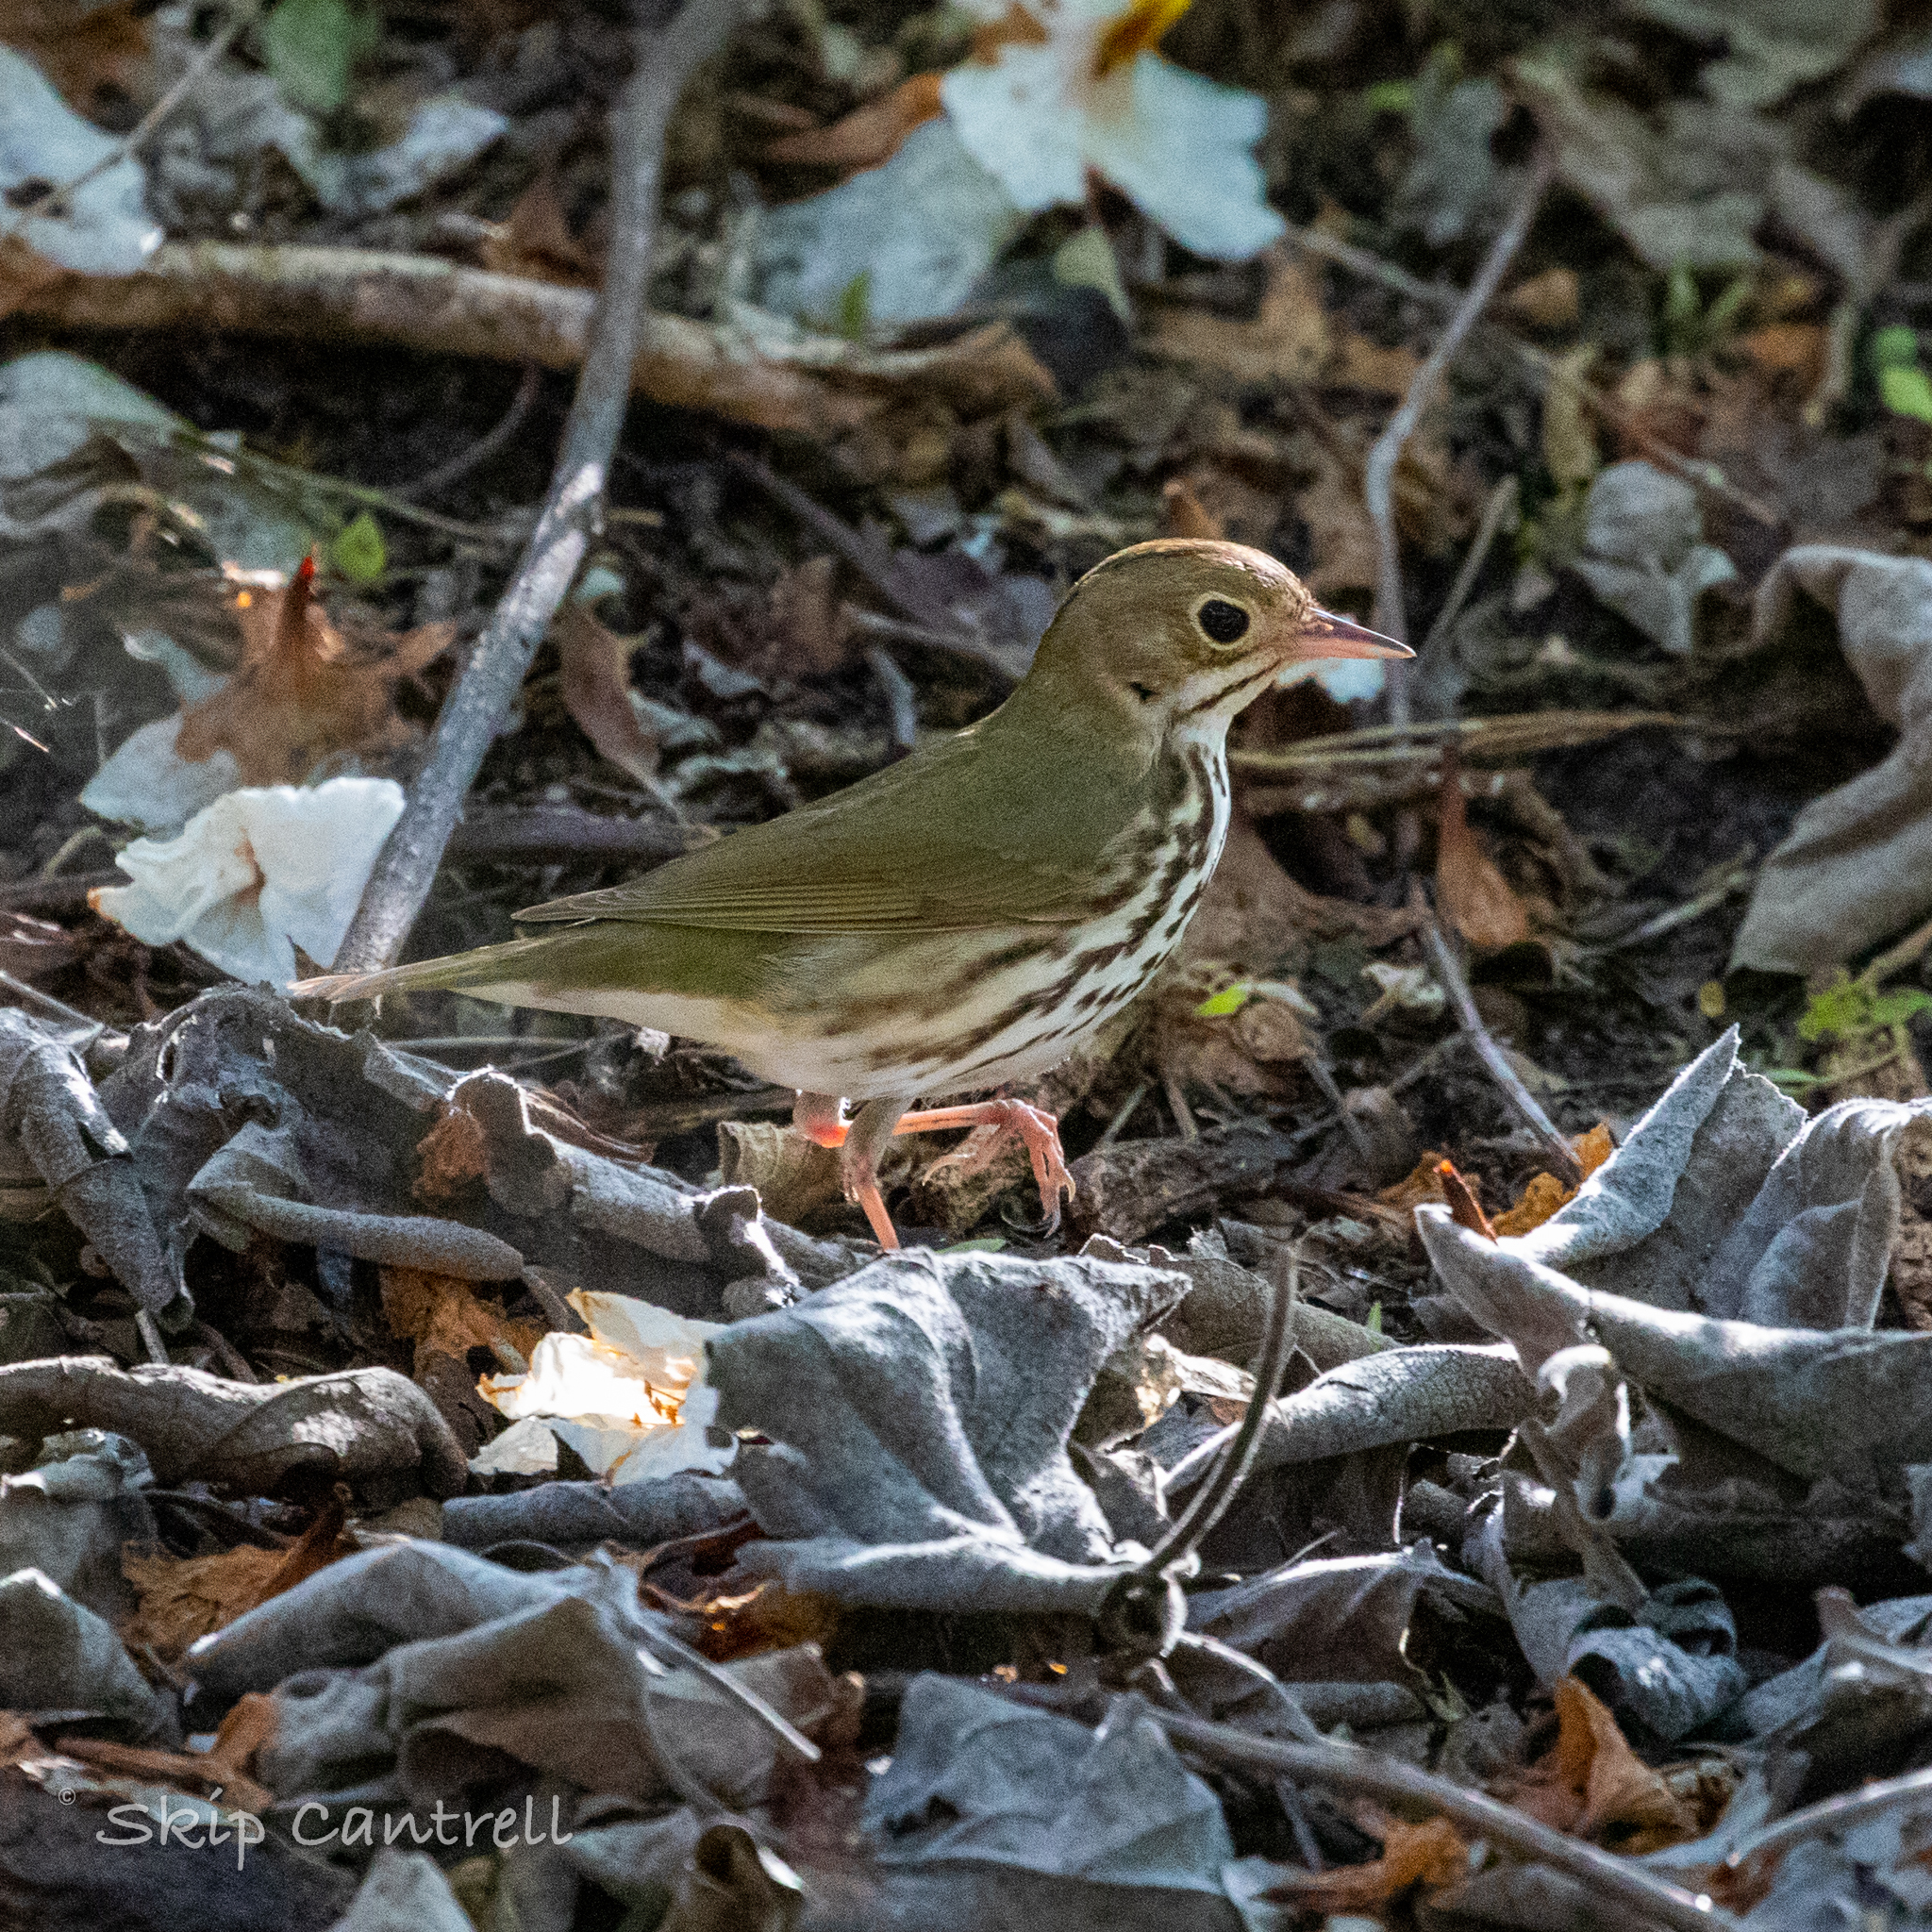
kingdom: Animalia
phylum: Chordata
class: Aves
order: Passeriformes
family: Parulidae
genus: Seiurus
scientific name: Seiurus aurocapilla
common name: Ovenbird
